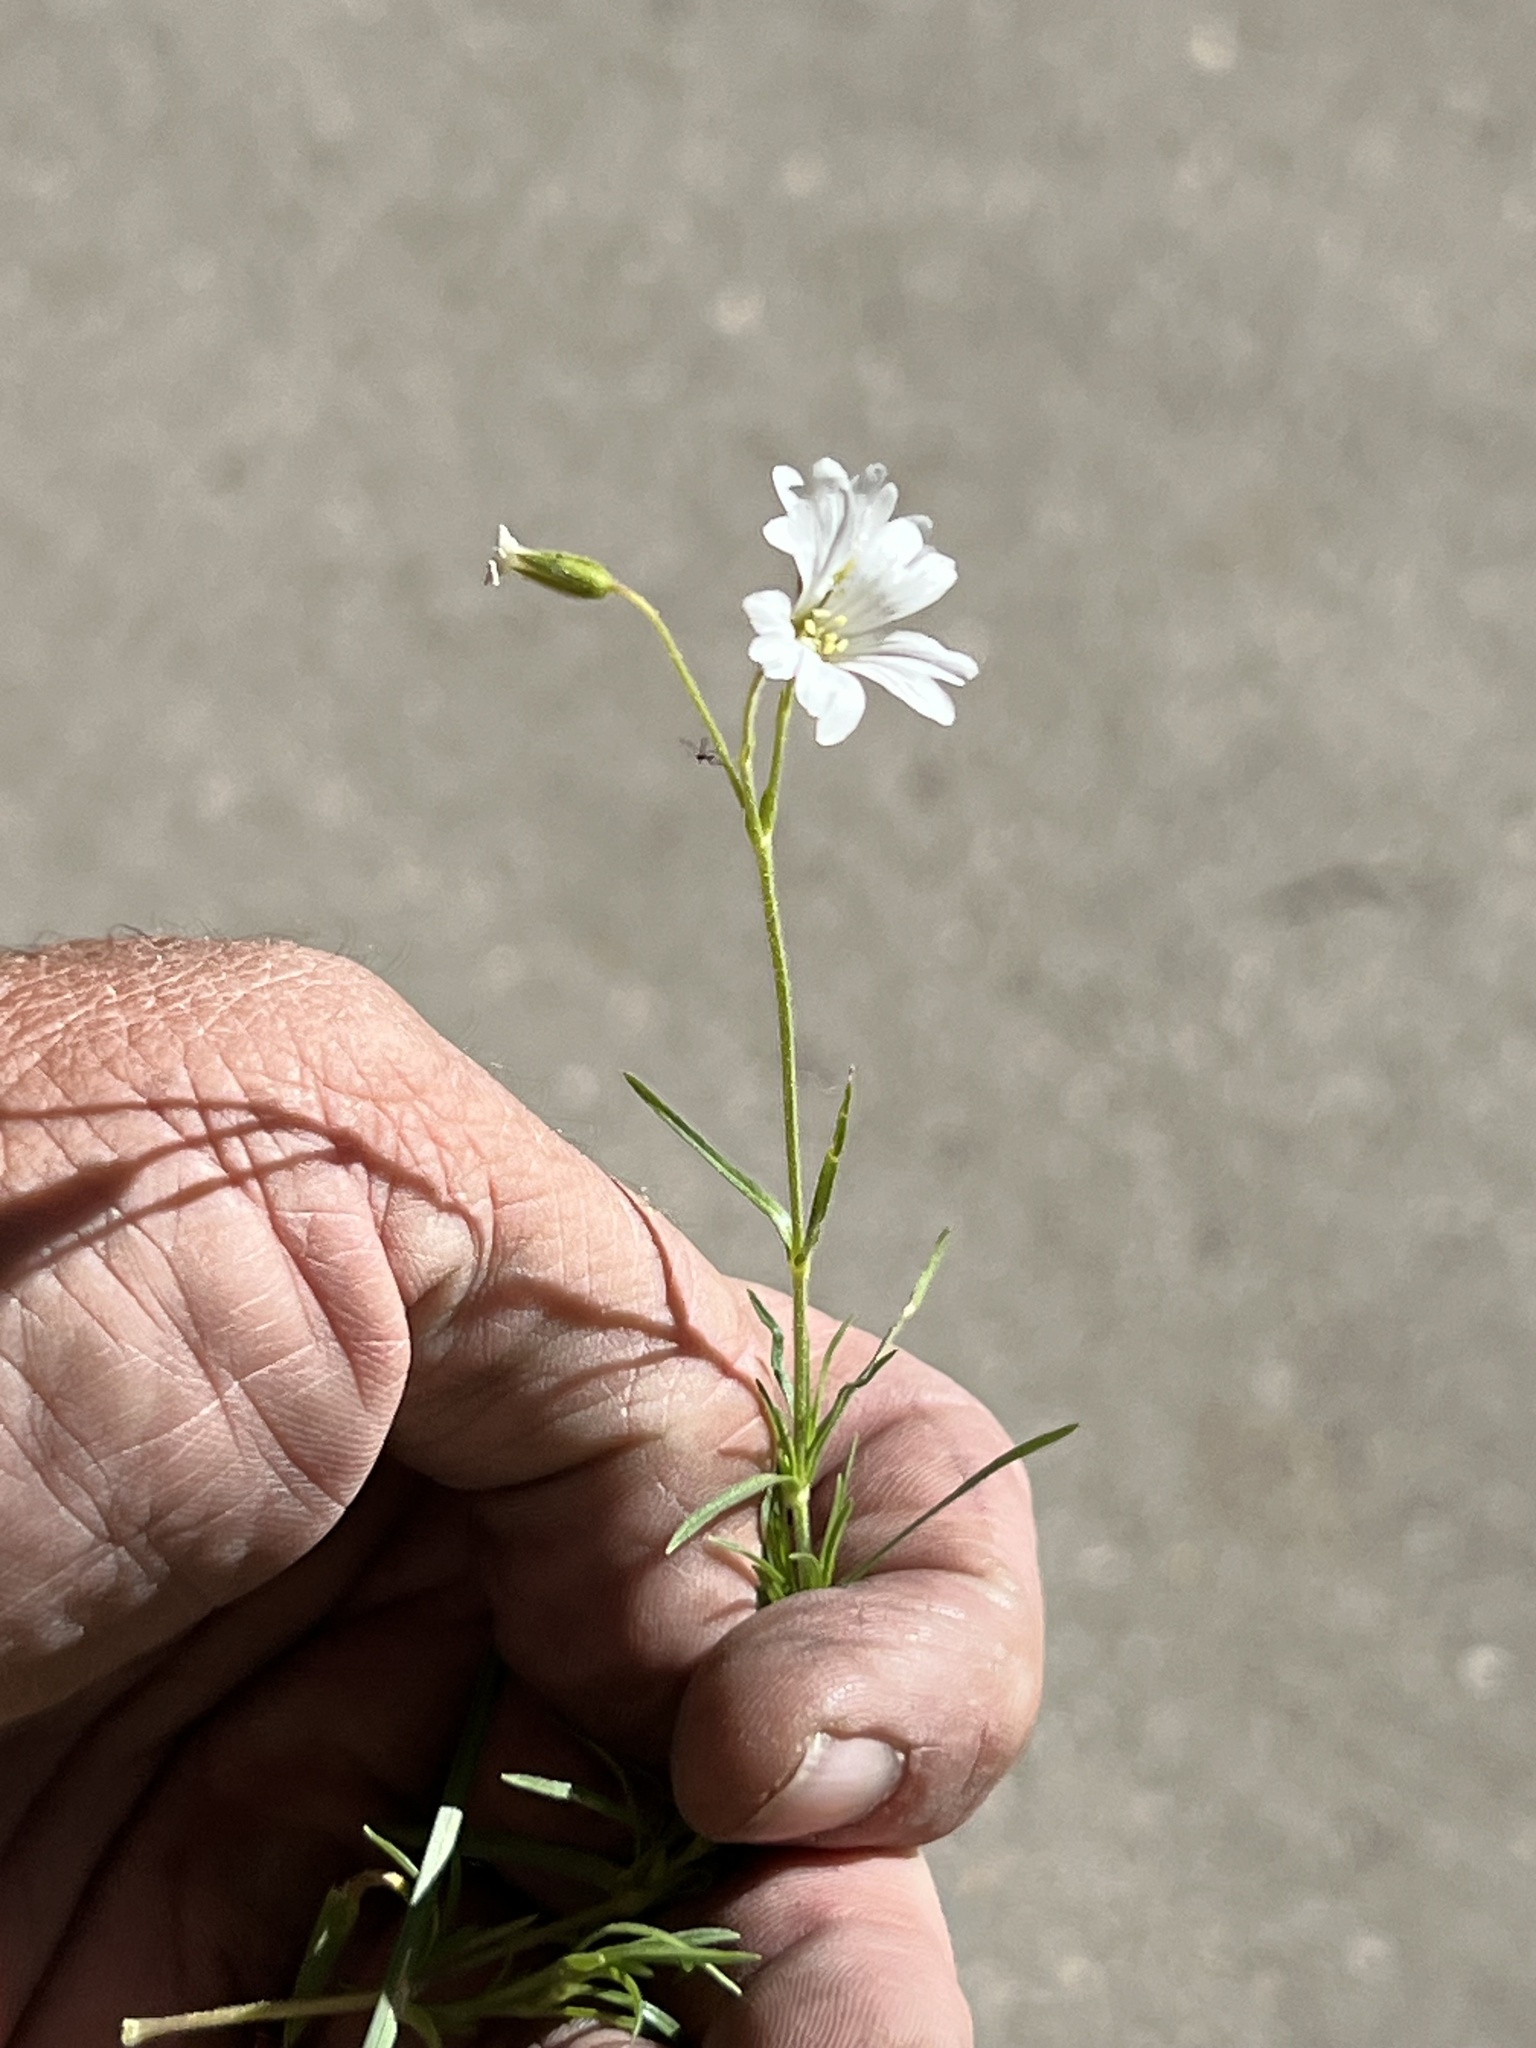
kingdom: Plantae
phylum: Tracheophyta
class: Magnoliopsida
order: Caryophyllales
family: Caryophyllaceae
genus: Schizotechium
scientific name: Schizotechium jamesianum
